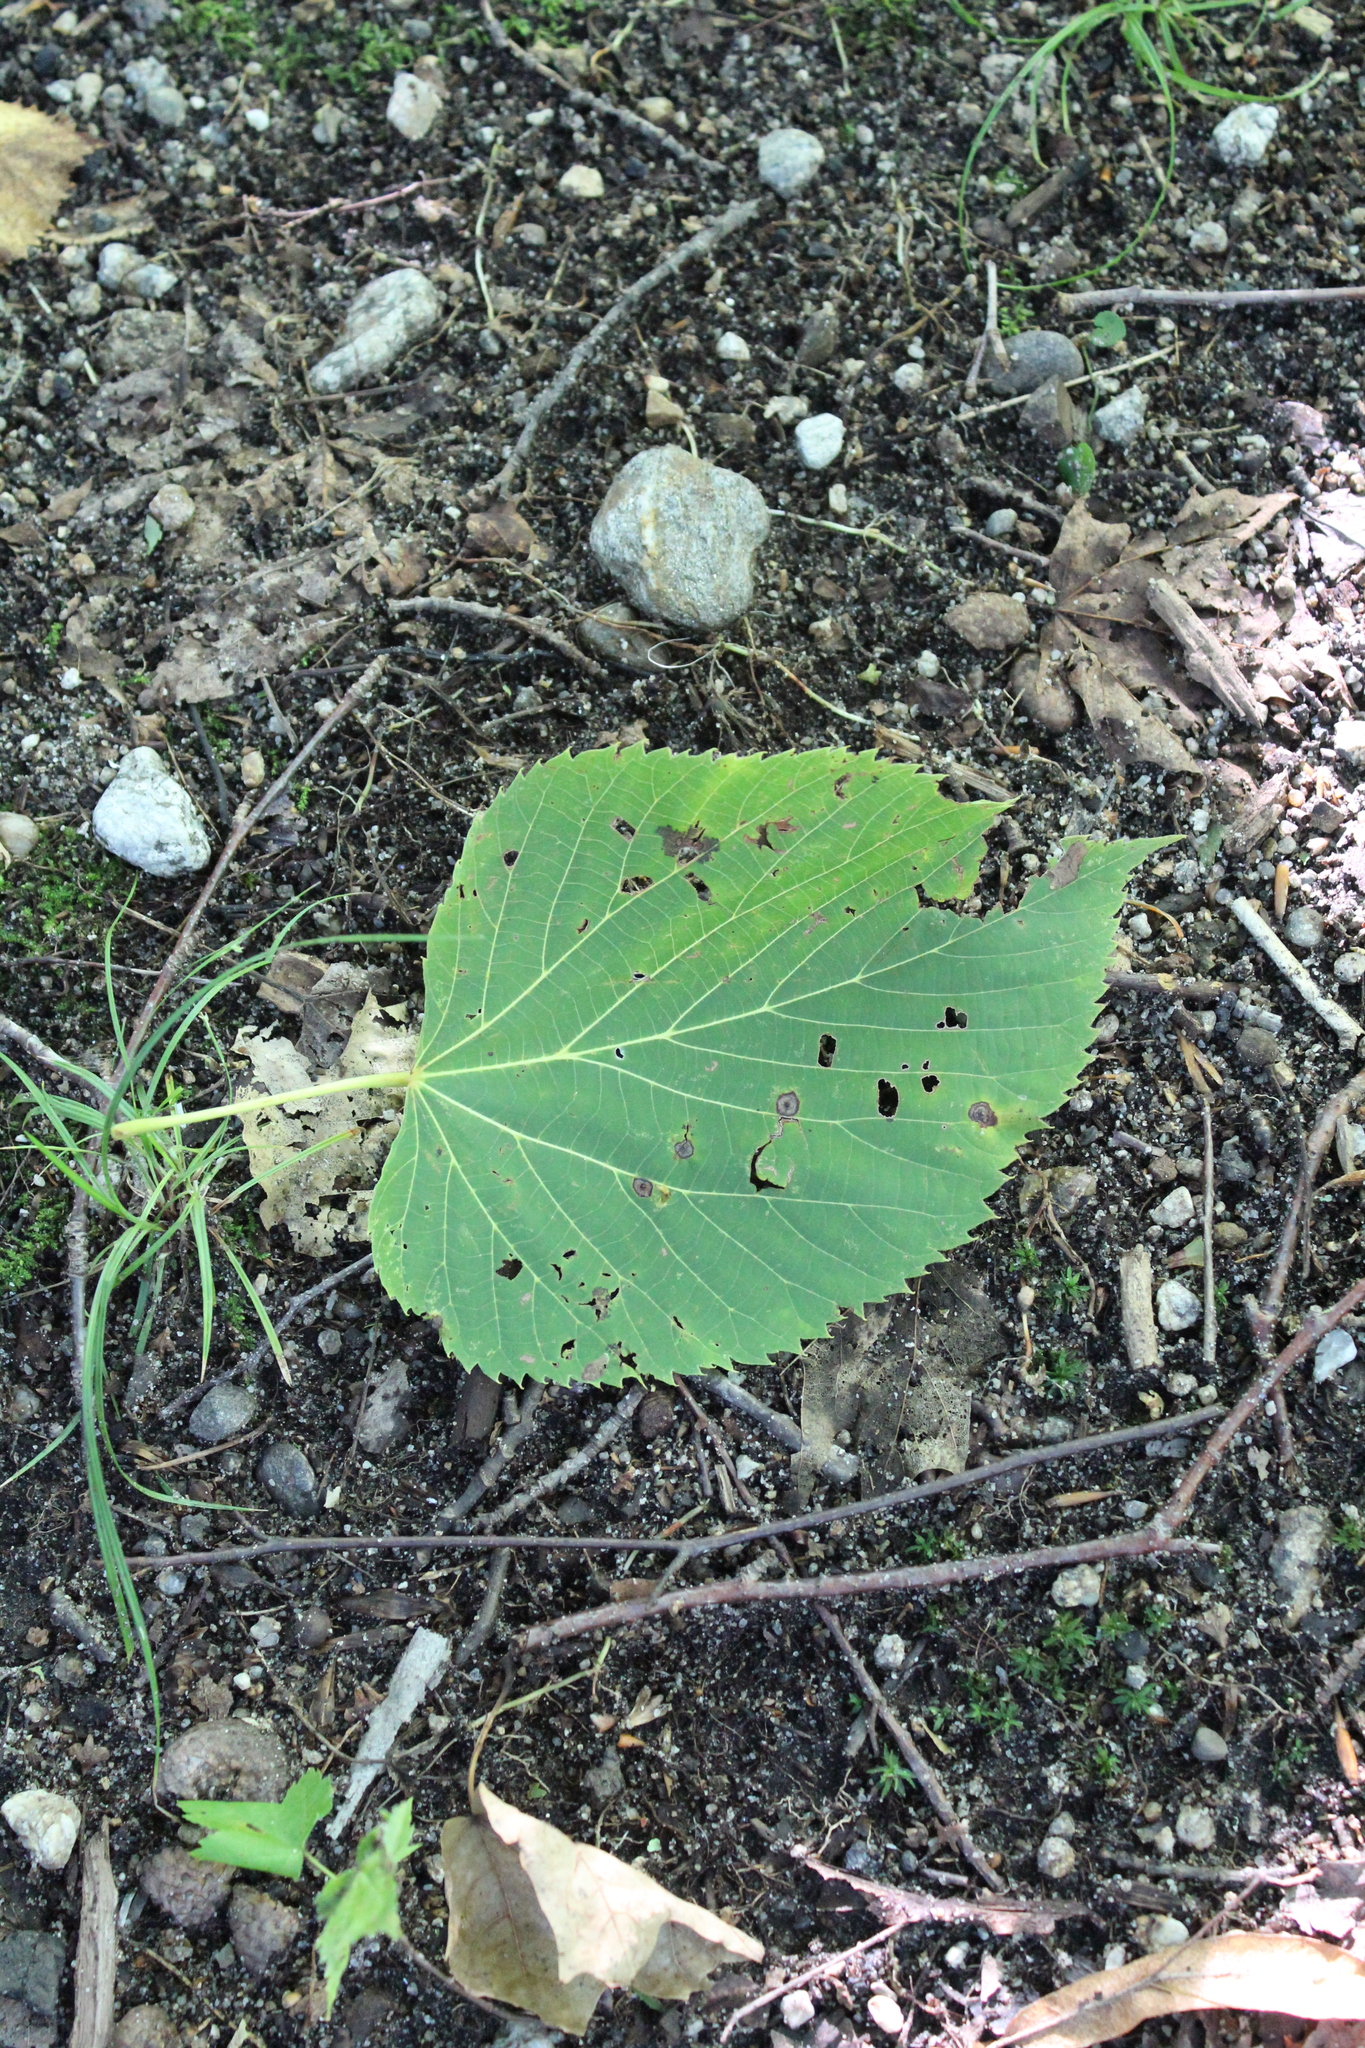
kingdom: Plantae
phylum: Tracheophyta
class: Magnoliopsida
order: Malvales
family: Malvaceae
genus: Tilia
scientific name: Tilia americana
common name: Basswood
